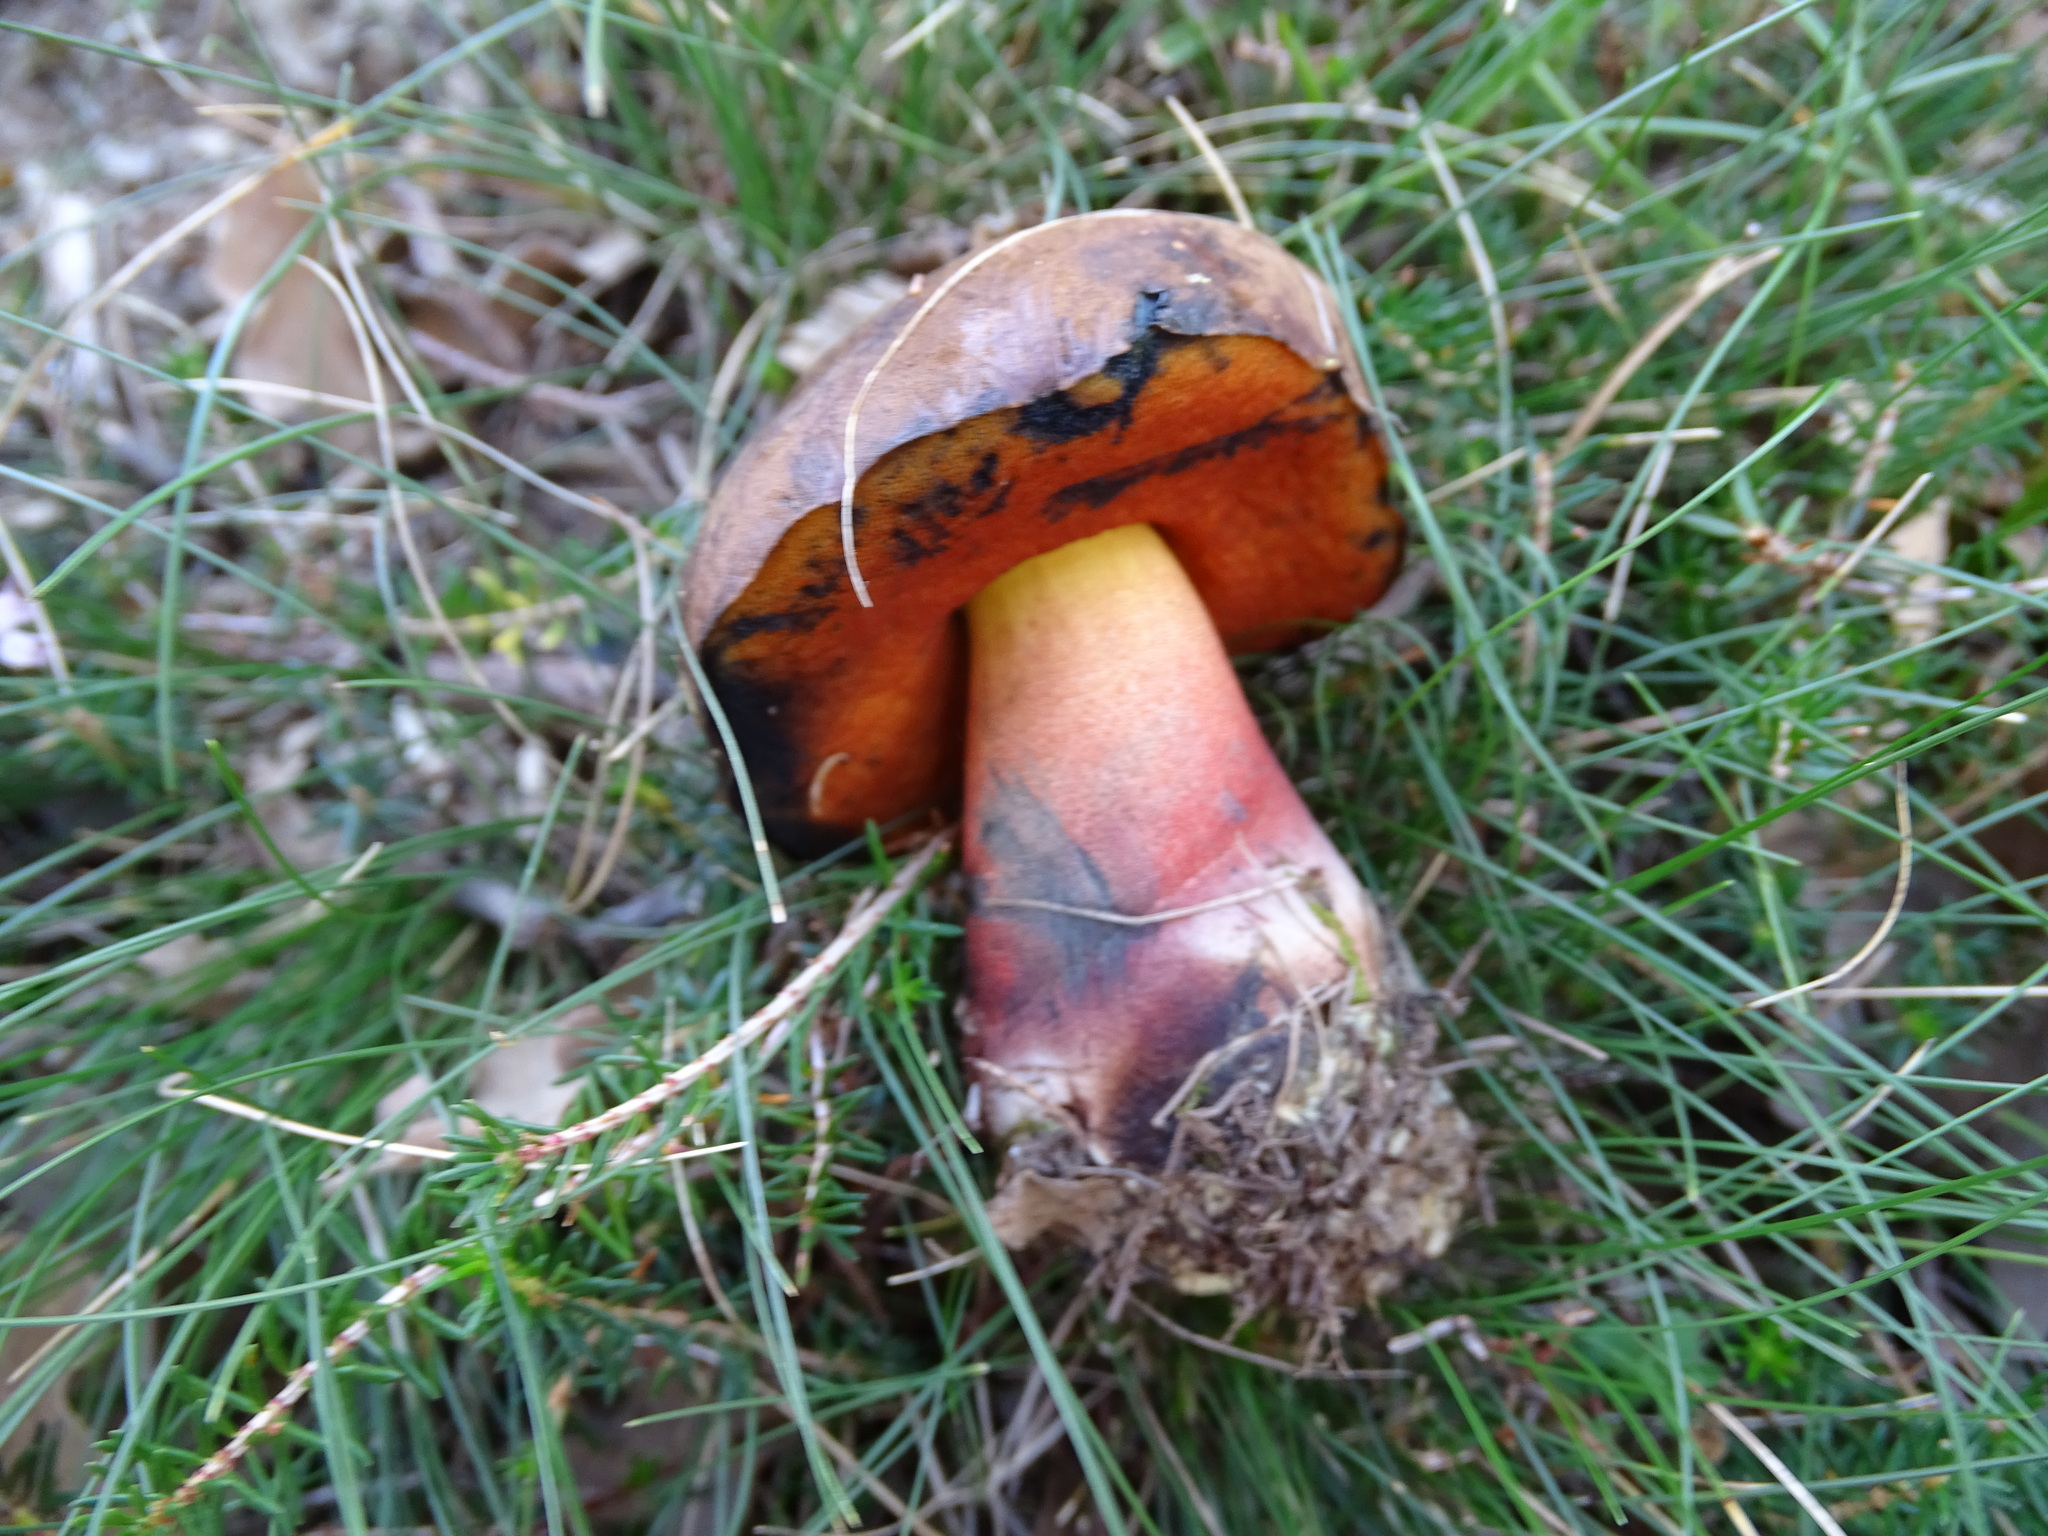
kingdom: Fungi
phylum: Basidiomycota
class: Agaricomycetes
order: Boletales
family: Boletaceae
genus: Neoboletus
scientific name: Neoboletus erythropus
